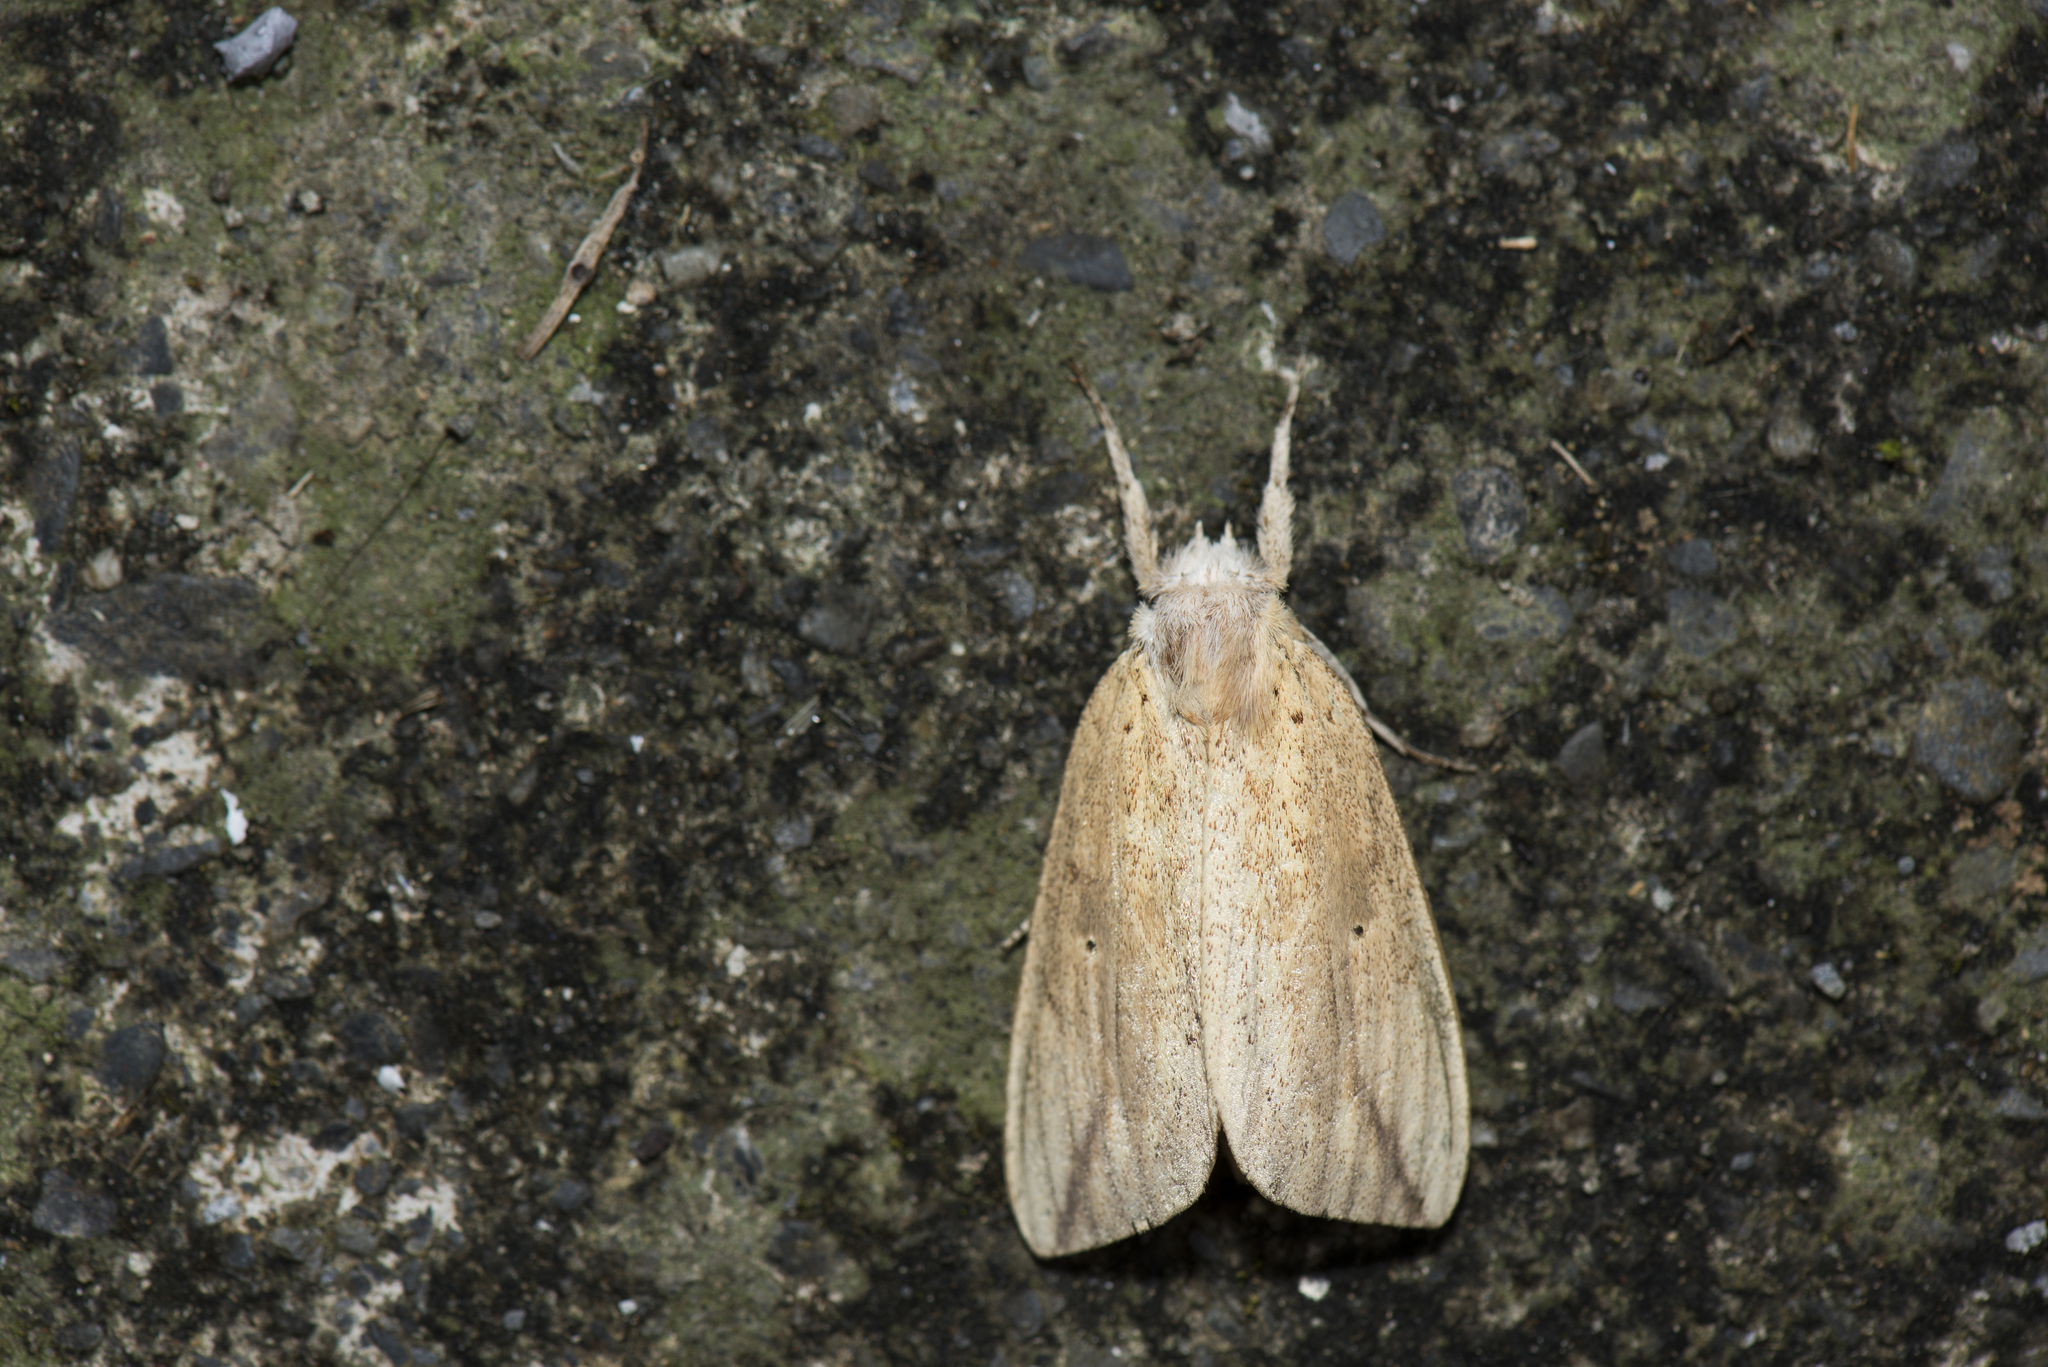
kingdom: Animalia
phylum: Arthropoda
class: Insecta
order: Lepidoptera
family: Notodontidae
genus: Periergos
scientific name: Periergos magna
